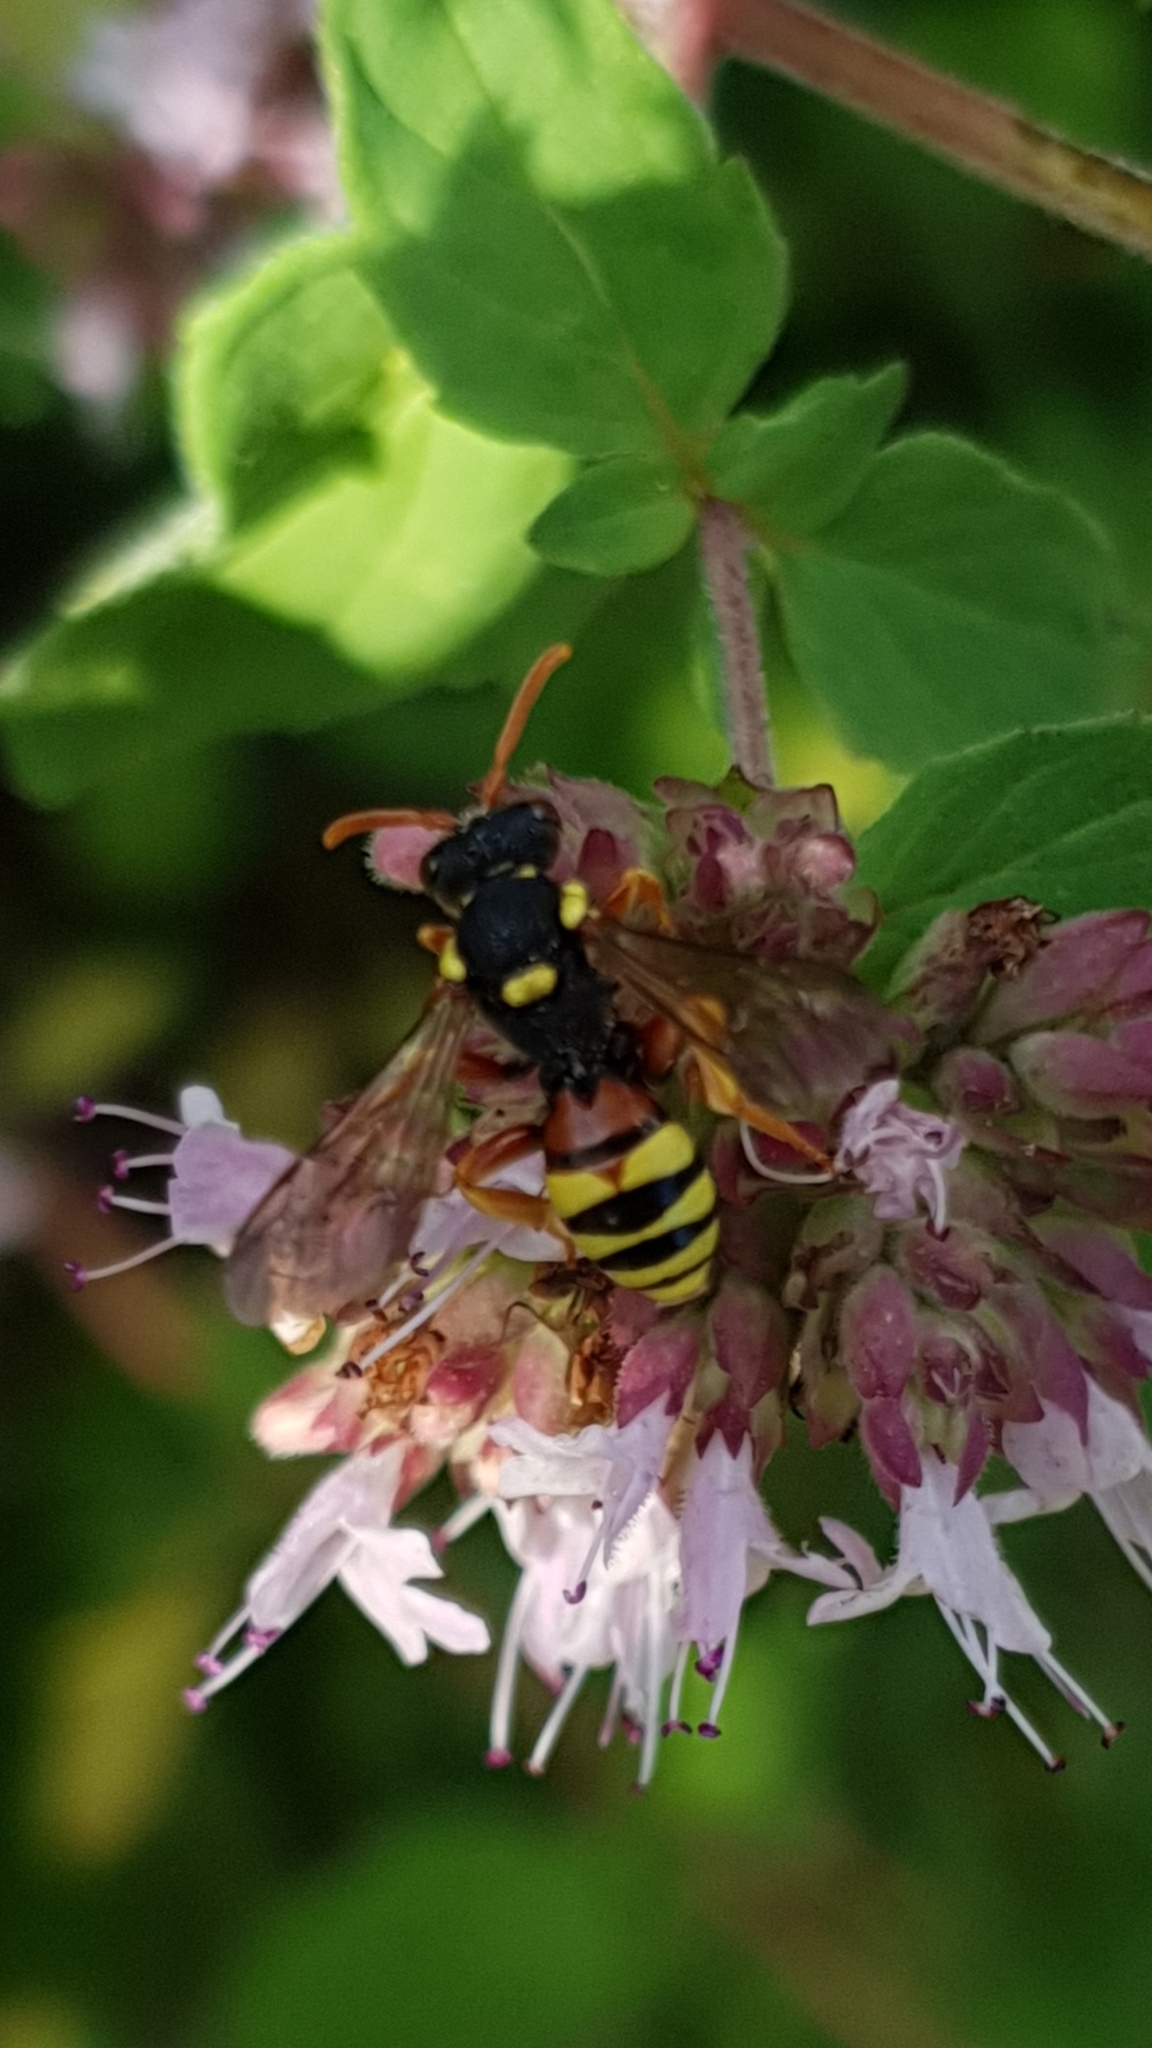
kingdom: Animalia
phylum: Arthropoda
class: Insecta
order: Hymenoptera
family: Apidae
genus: Nomada
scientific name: Nomada fucata
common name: Painted nomad bee
